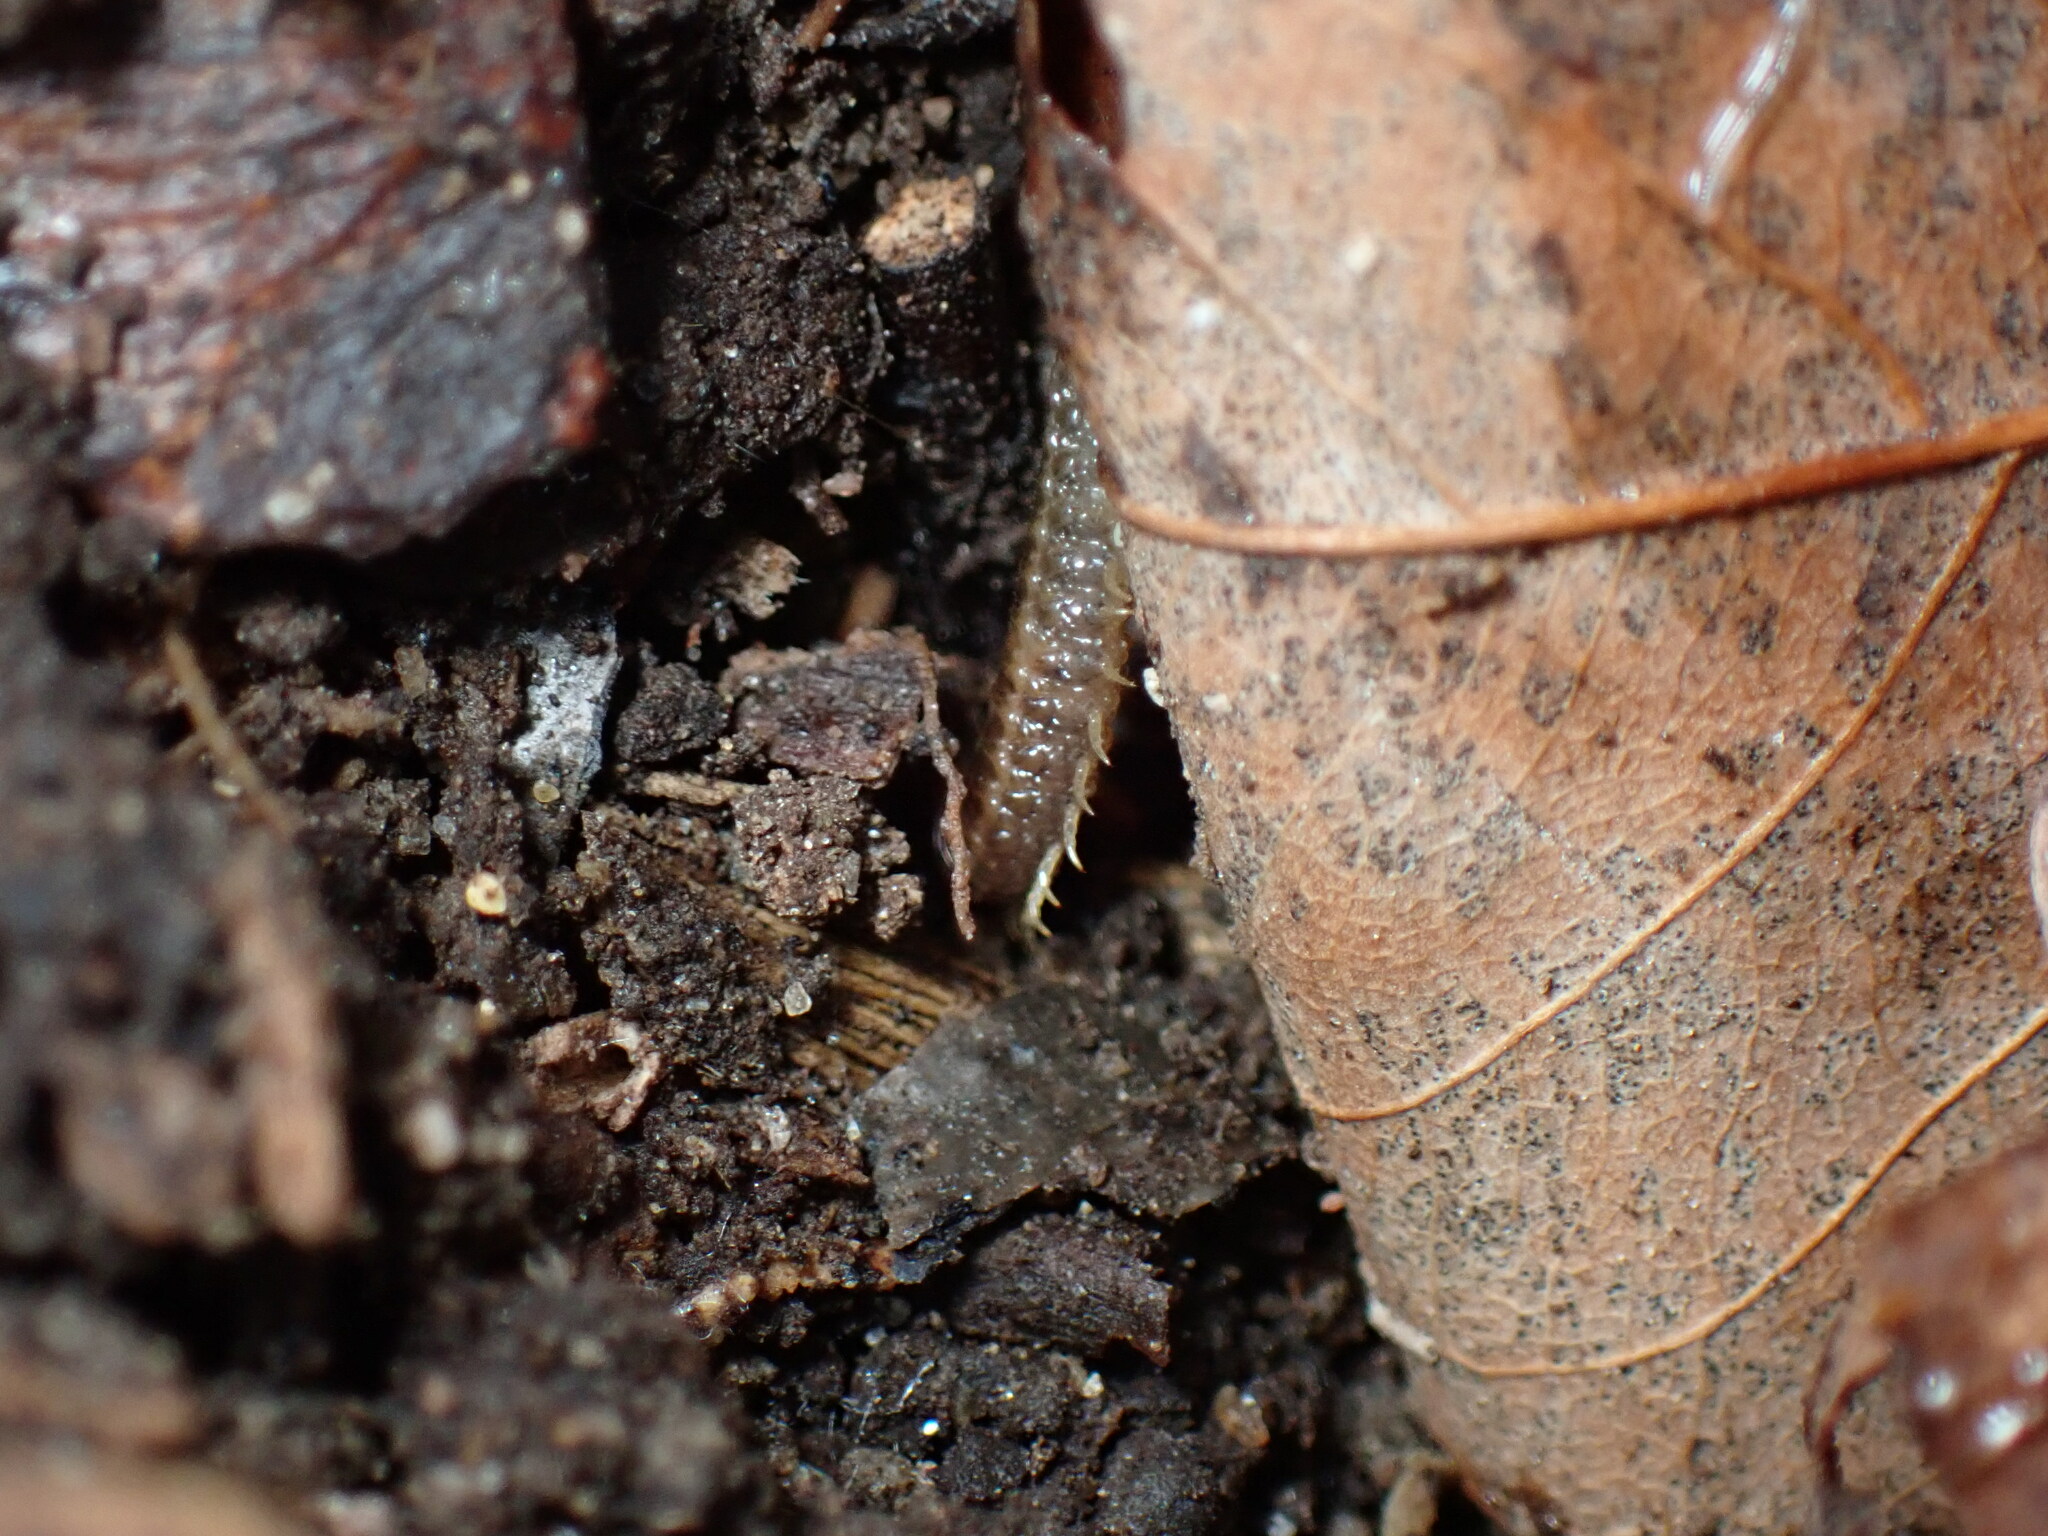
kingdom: Animalia
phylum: Arthropoda
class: Chilopoda
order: Geophilomorpha
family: Dignathodontidae
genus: Henia
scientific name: Henia vesuviana
